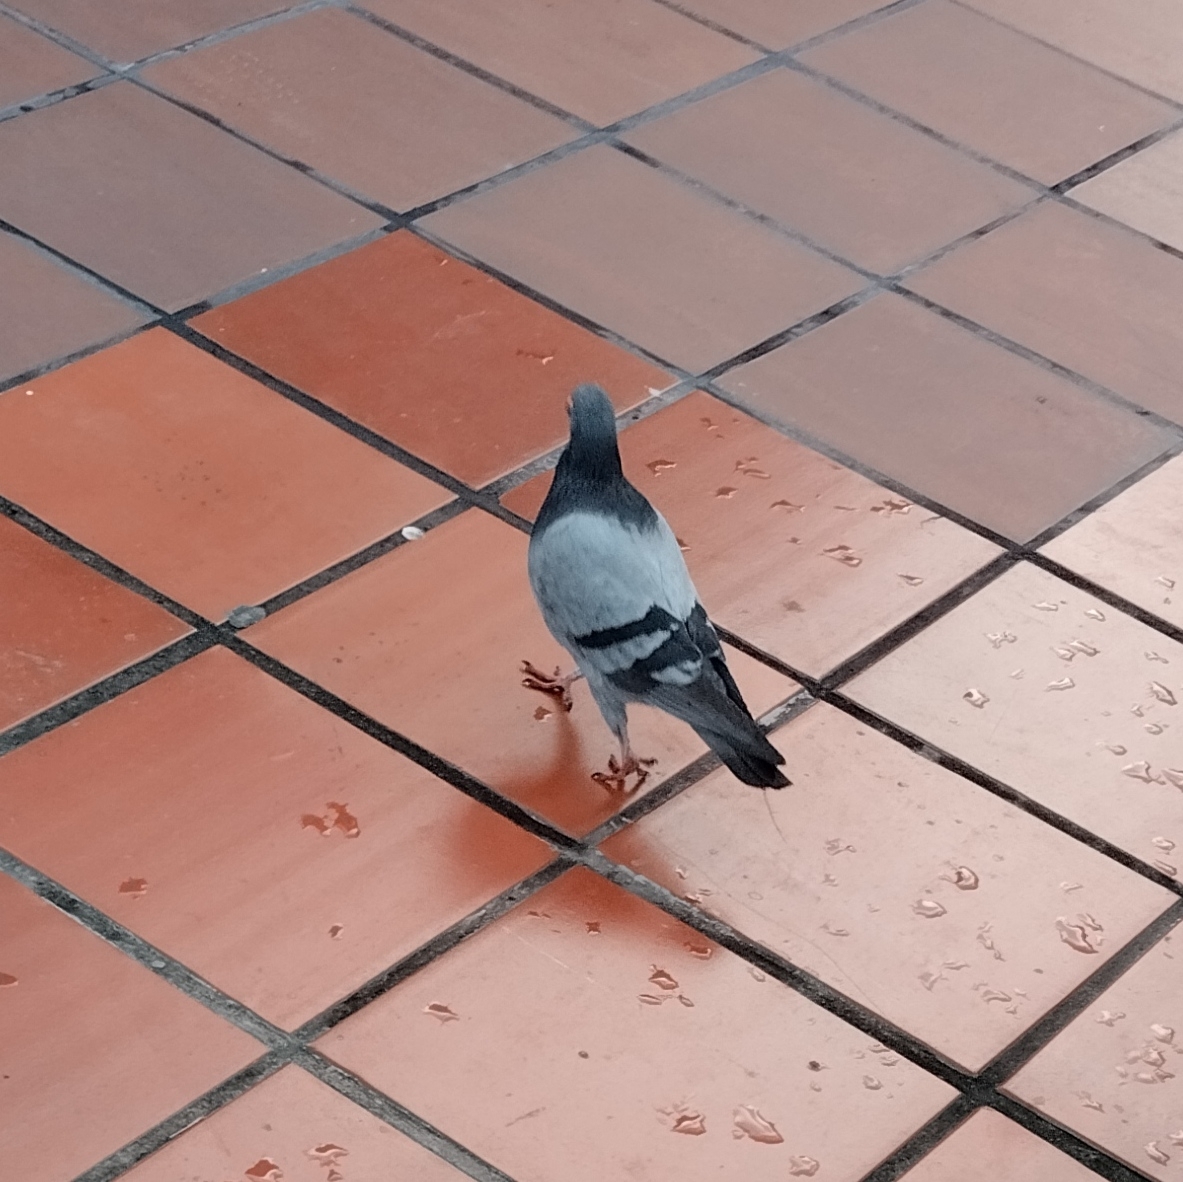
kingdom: Animalia
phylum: Chordata
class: Aves
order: Columbiformes
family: Columbidae
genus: Columba
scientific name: Columba livia
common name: Rock pigeon
